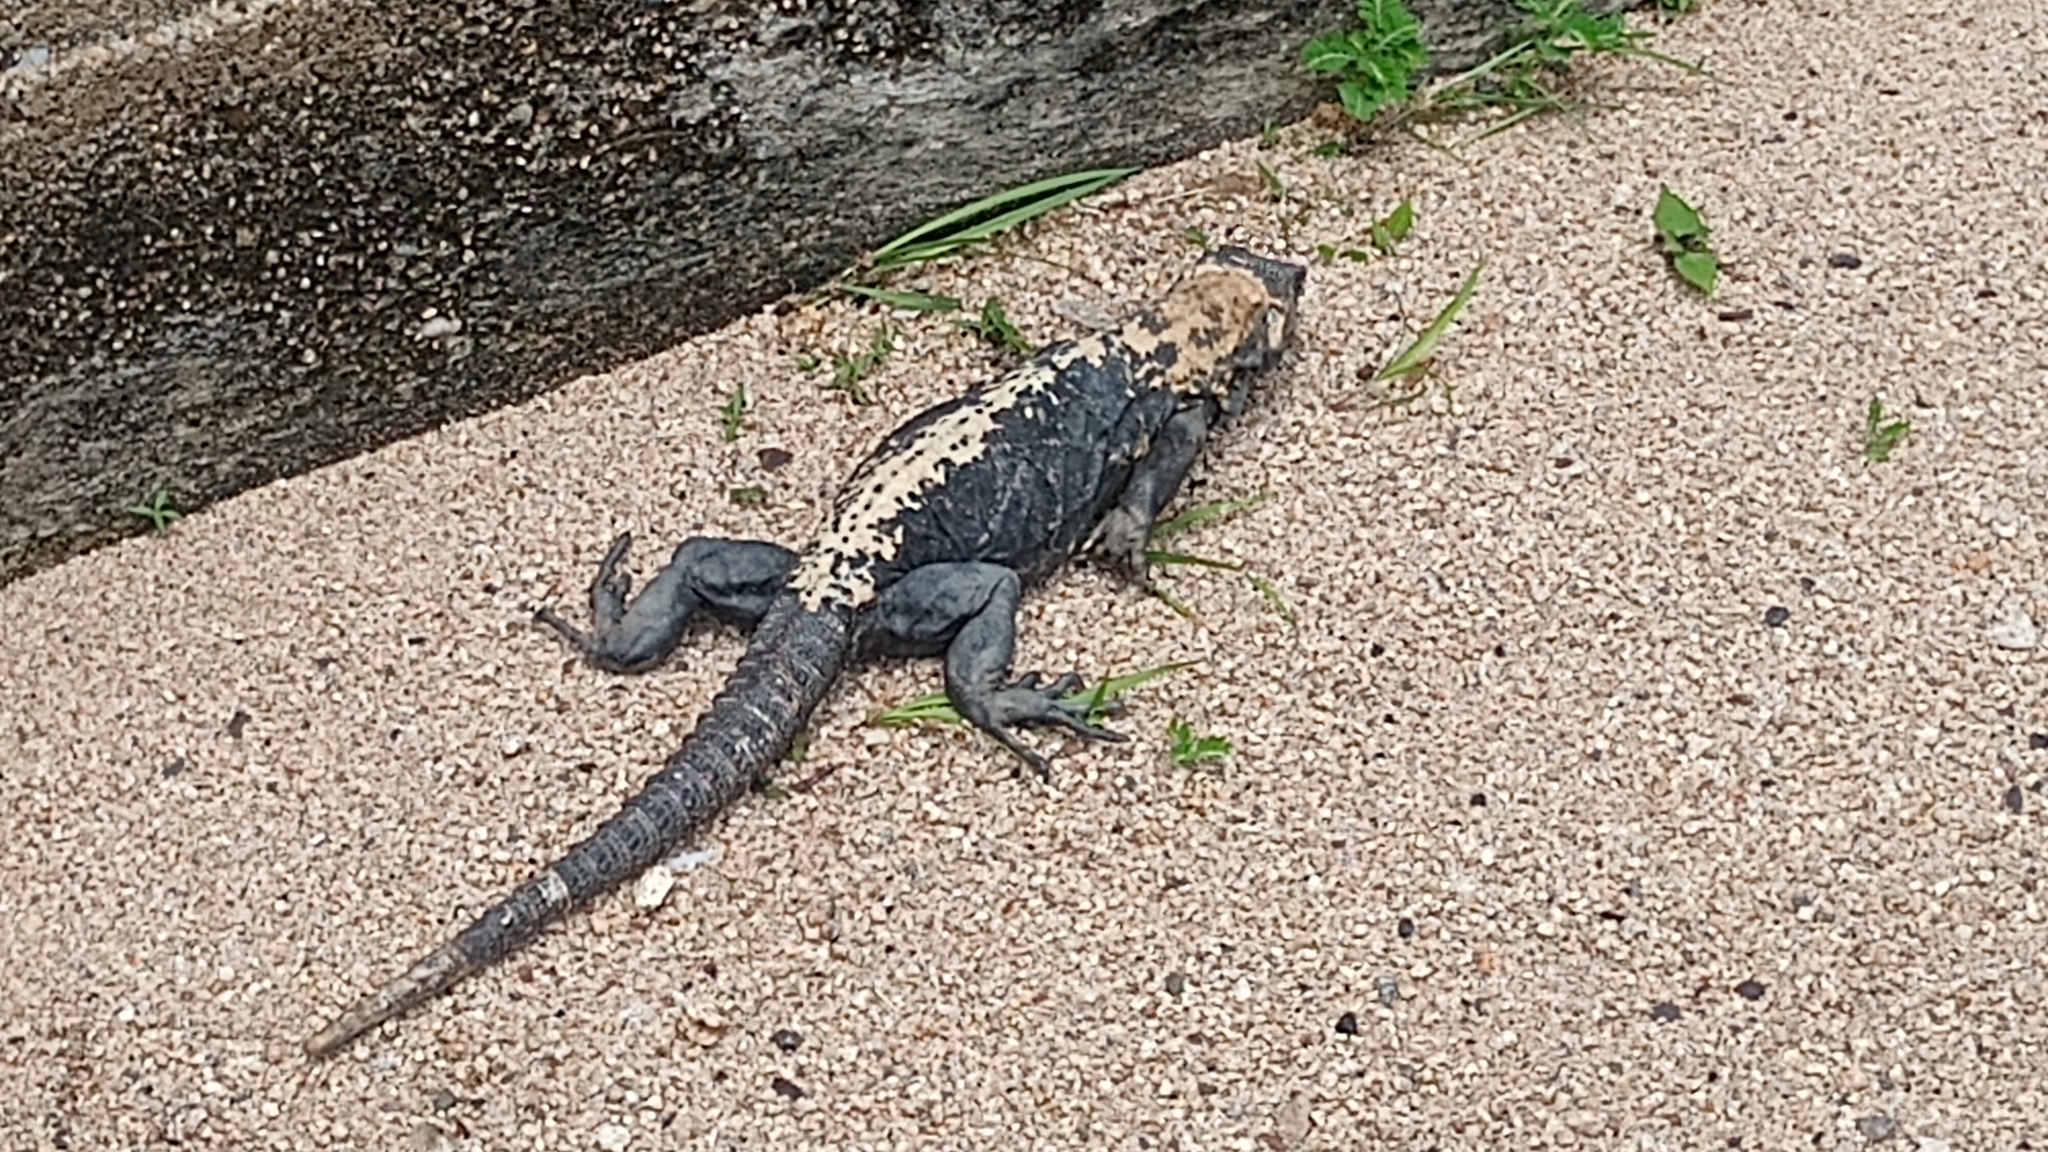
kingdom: Animalia
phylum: Chordata
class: Squamata
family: Iguanidae
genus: Ctenosaura
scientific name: Ctenosaura pectinata
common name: Guerreran spiny-tailed iguana
